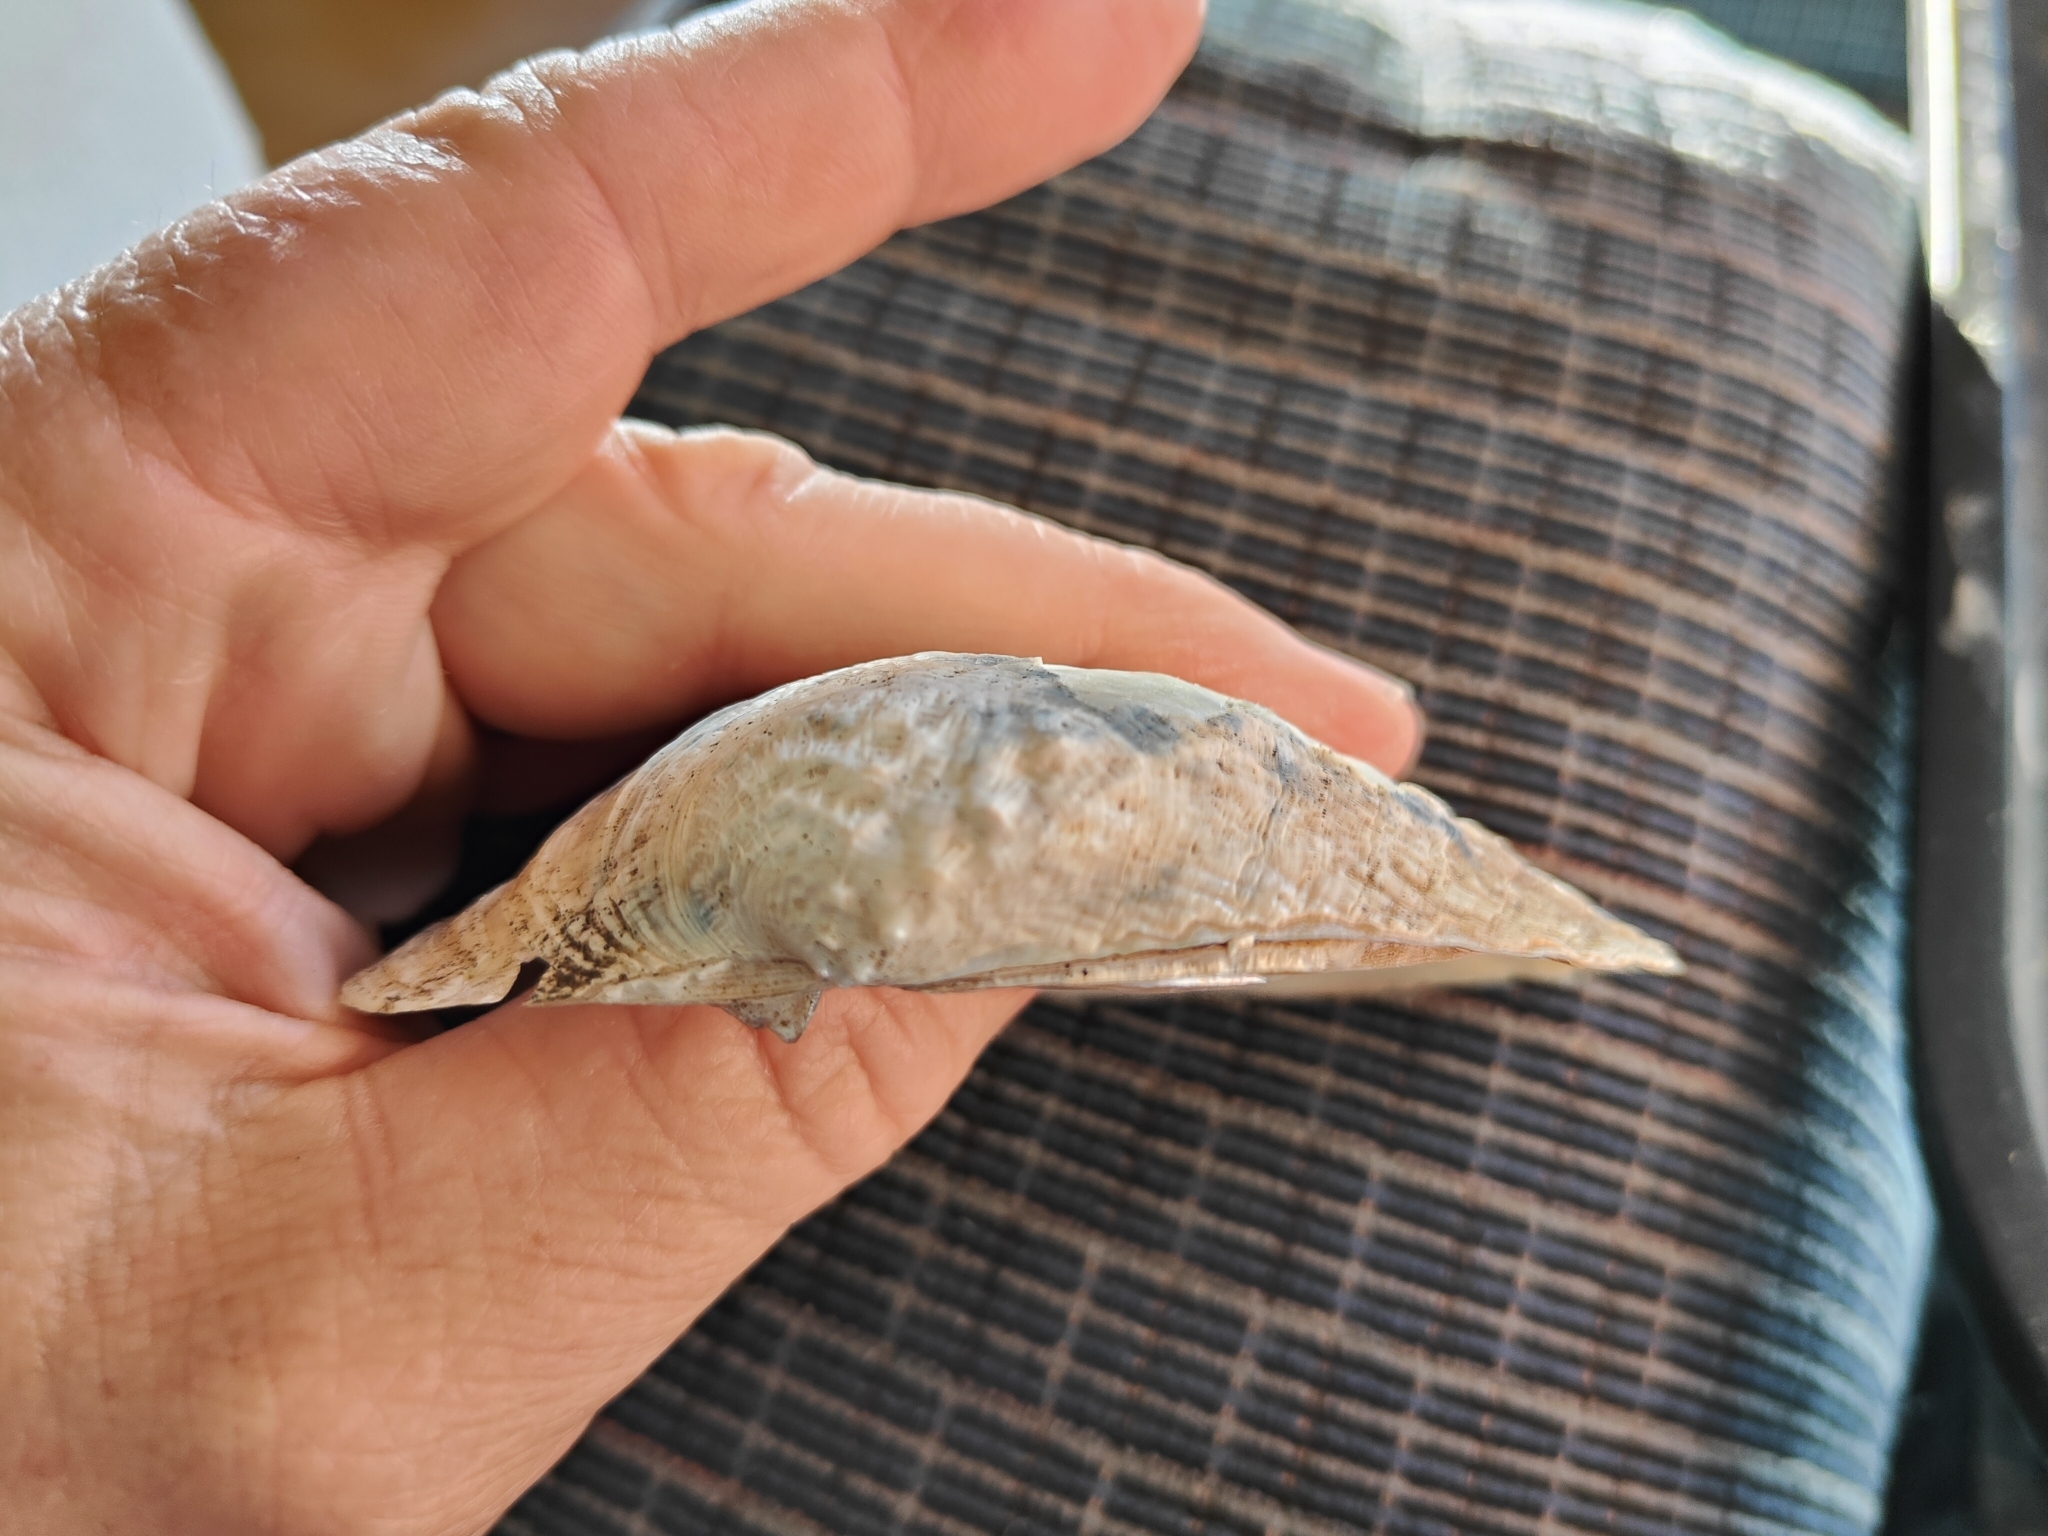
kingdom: Animalia
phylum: Mollusca
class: Bivalvia
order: Unionida
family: Unionidae
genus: Arcidens
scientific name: Arcidens confragosus
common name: Rock pocketbook
